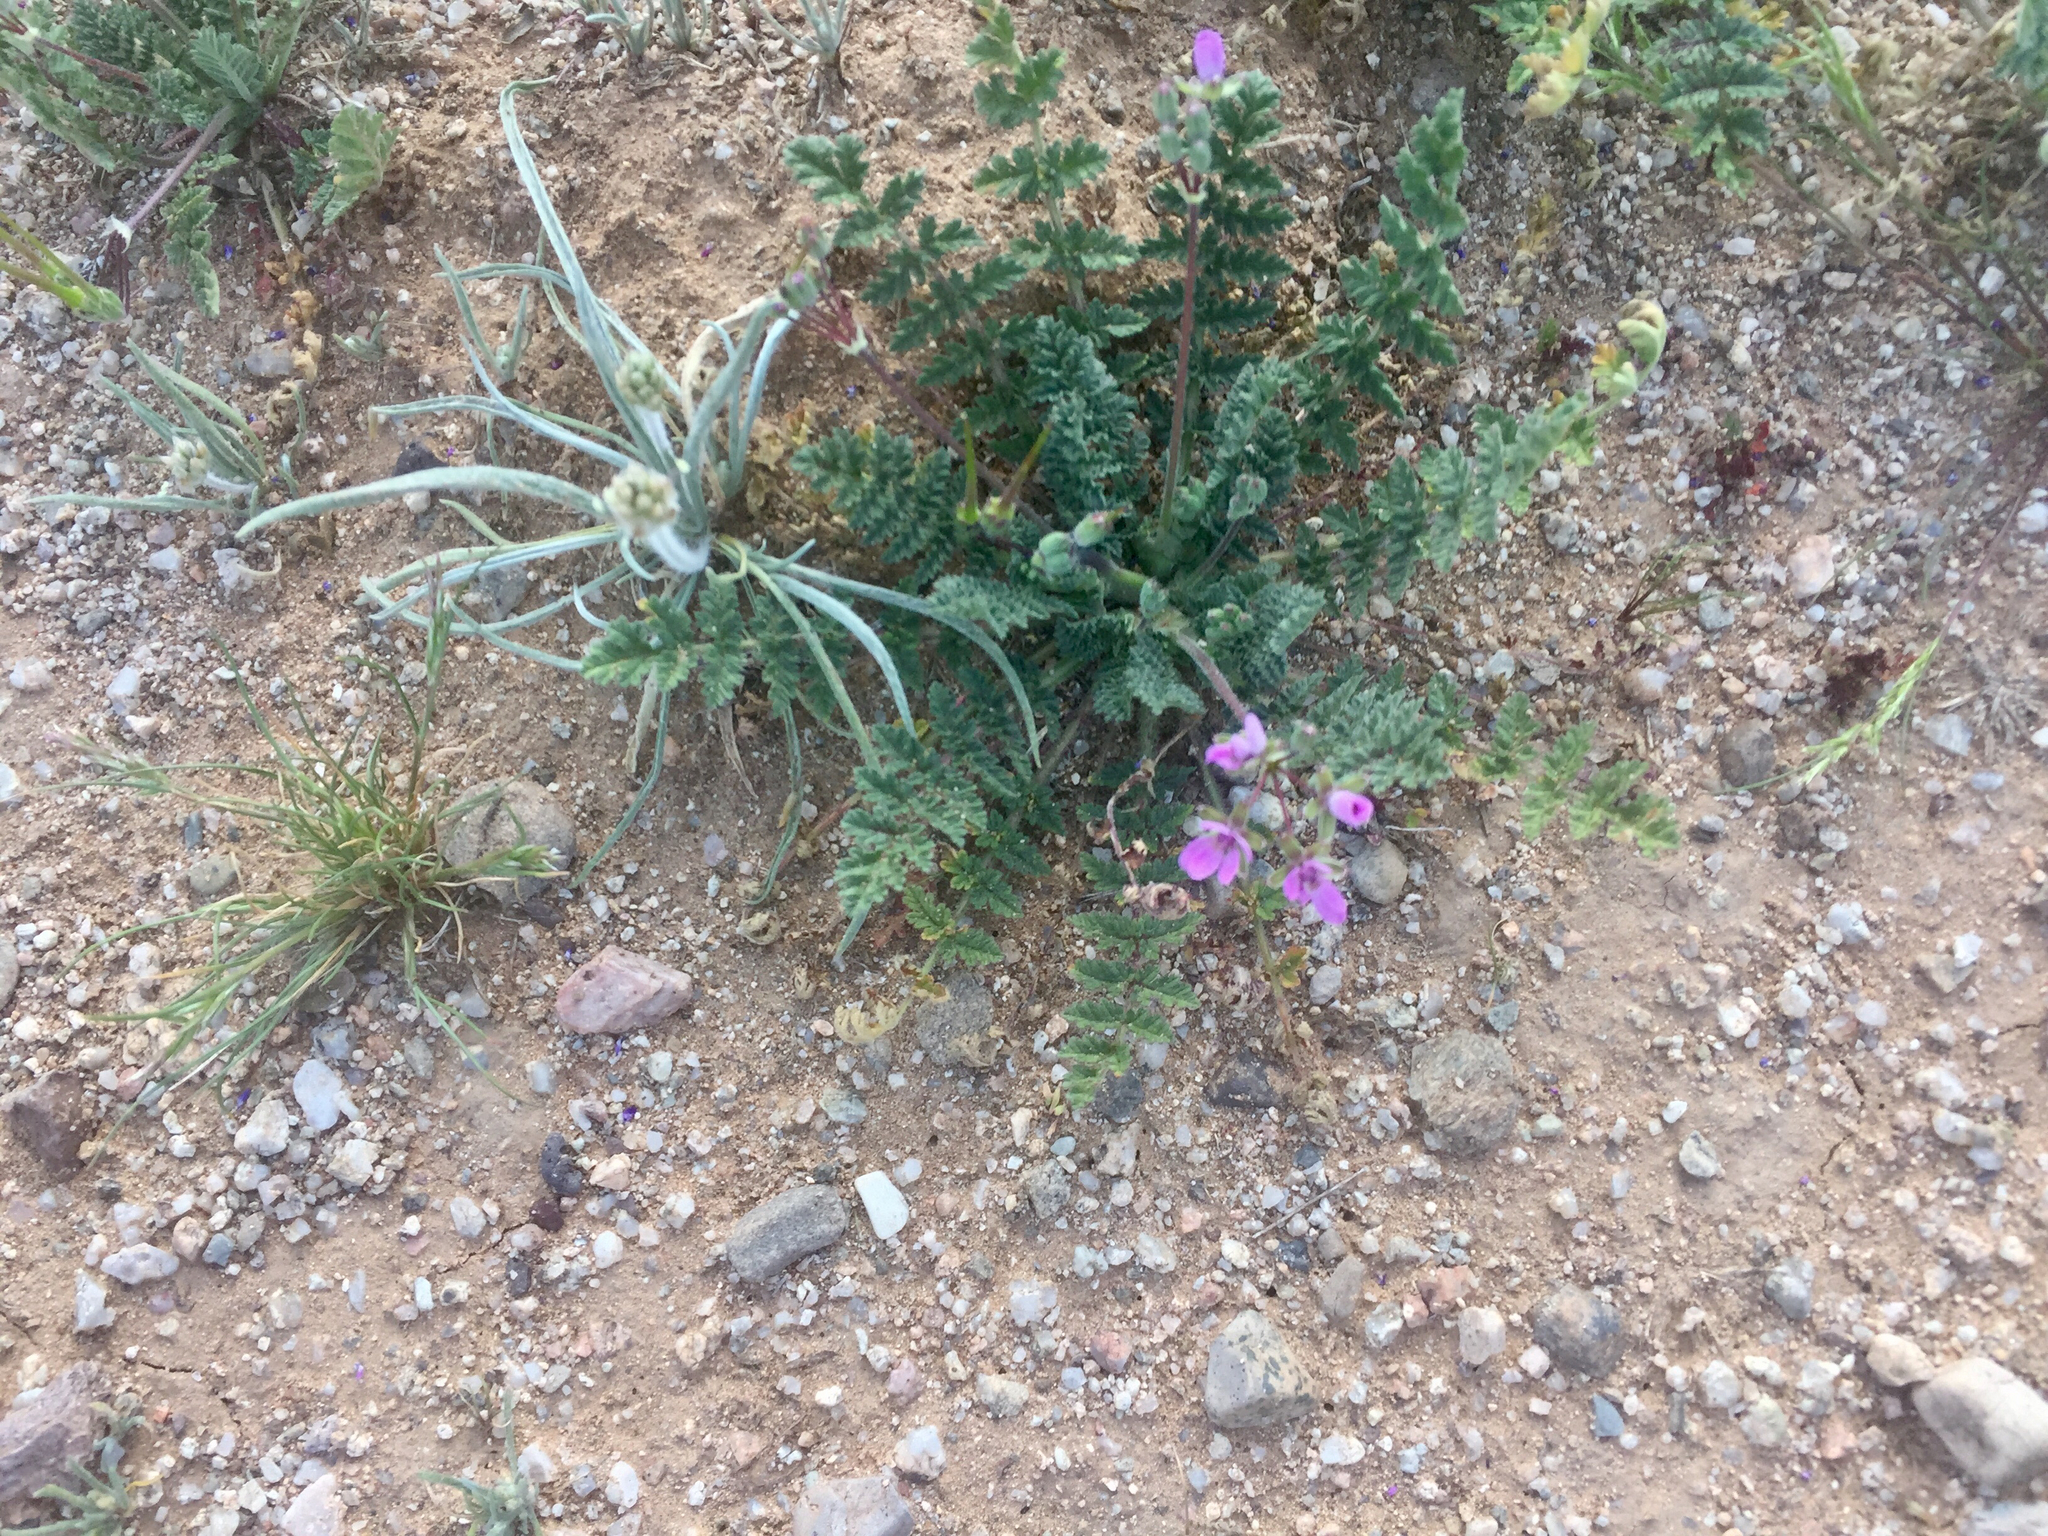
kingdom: Plantae
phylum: Tracheophyta
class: Magnoliopsida
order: Geraniales
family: Geraniaceae
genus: Erodium
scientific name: Erodium cicutarium
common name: Common stork's-bill
